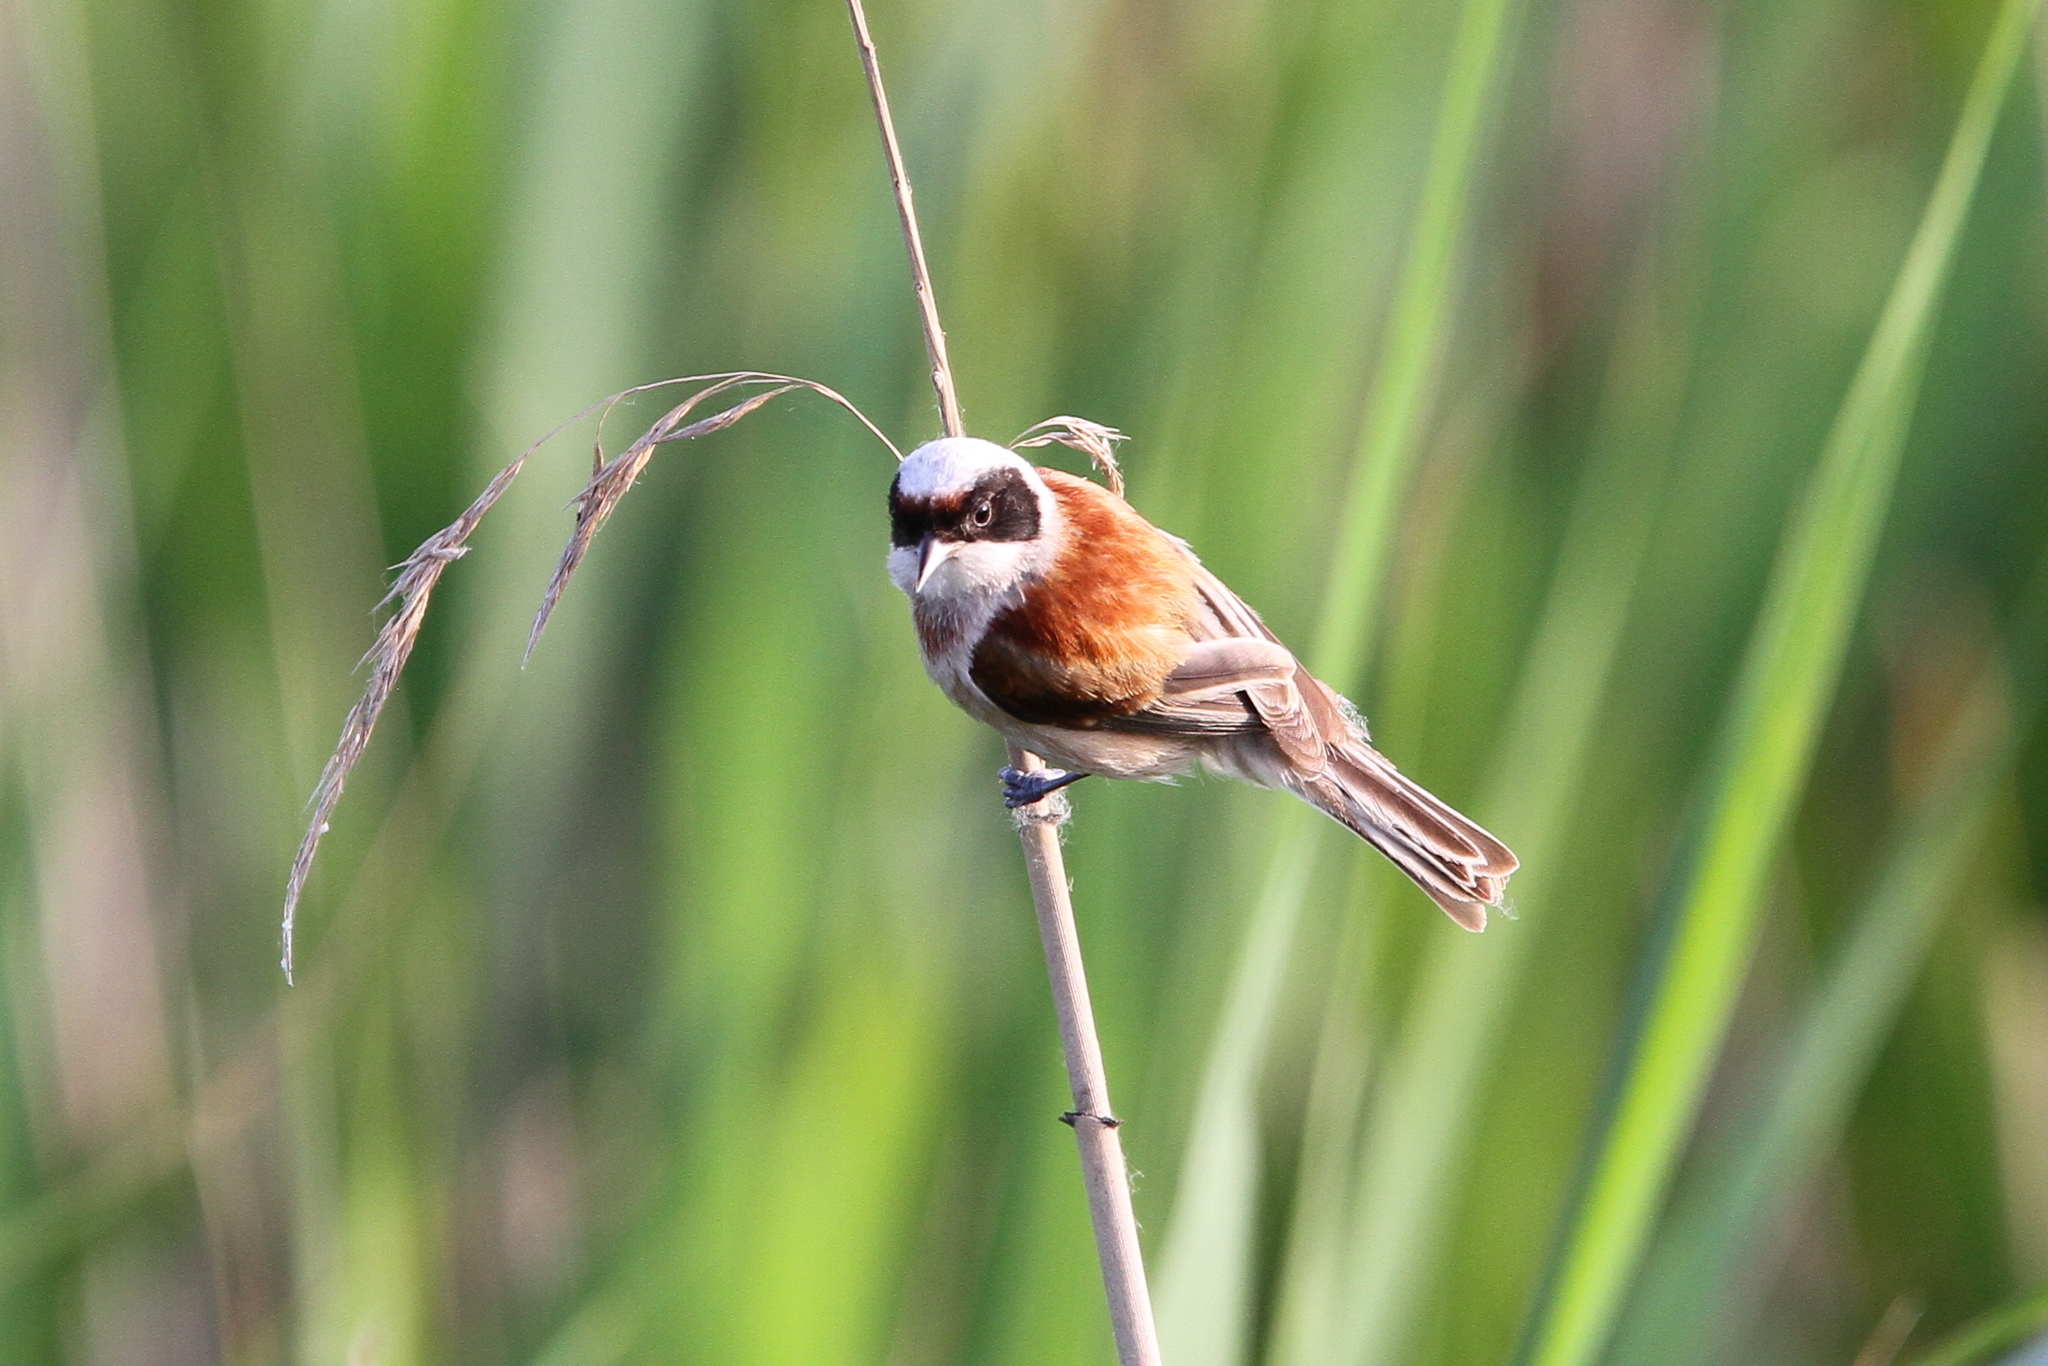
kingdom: Animalia
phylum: Chordata
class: Aves
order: Passeriformes
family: Remizidae
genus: Remiz
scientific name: Remiz pendulinus
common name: Eurasian penduline tit
